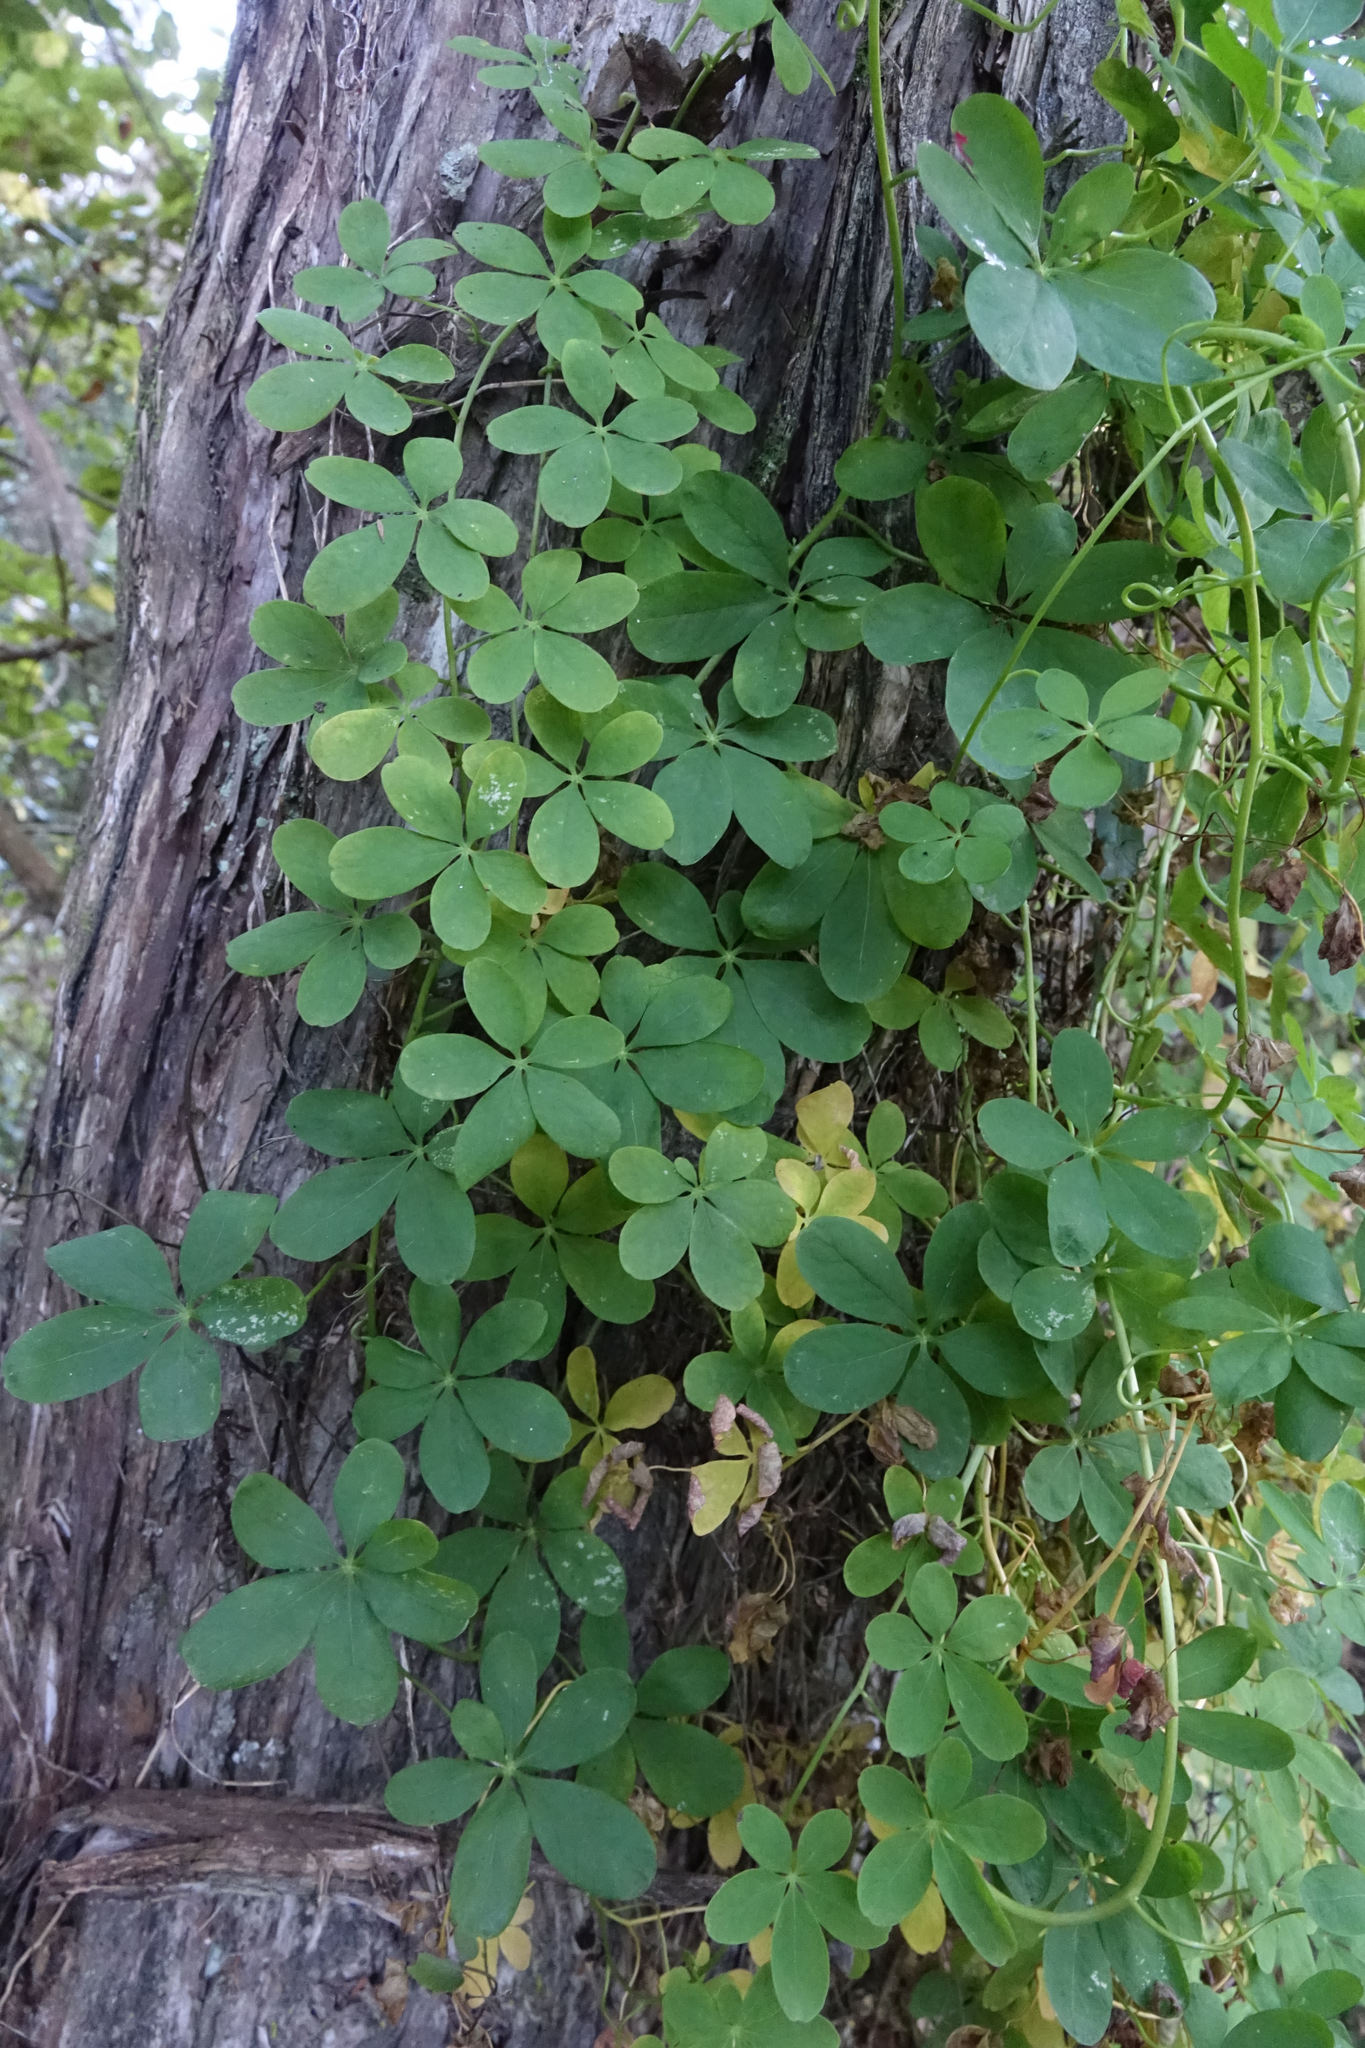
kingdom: Plantae
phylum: Tracheophyta
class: Magnoliopsida
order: Brassicales
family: Tropaeolaceae
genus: Tropaeolum
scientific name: Tropaeolum speciosum
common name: Flame nasturtium
